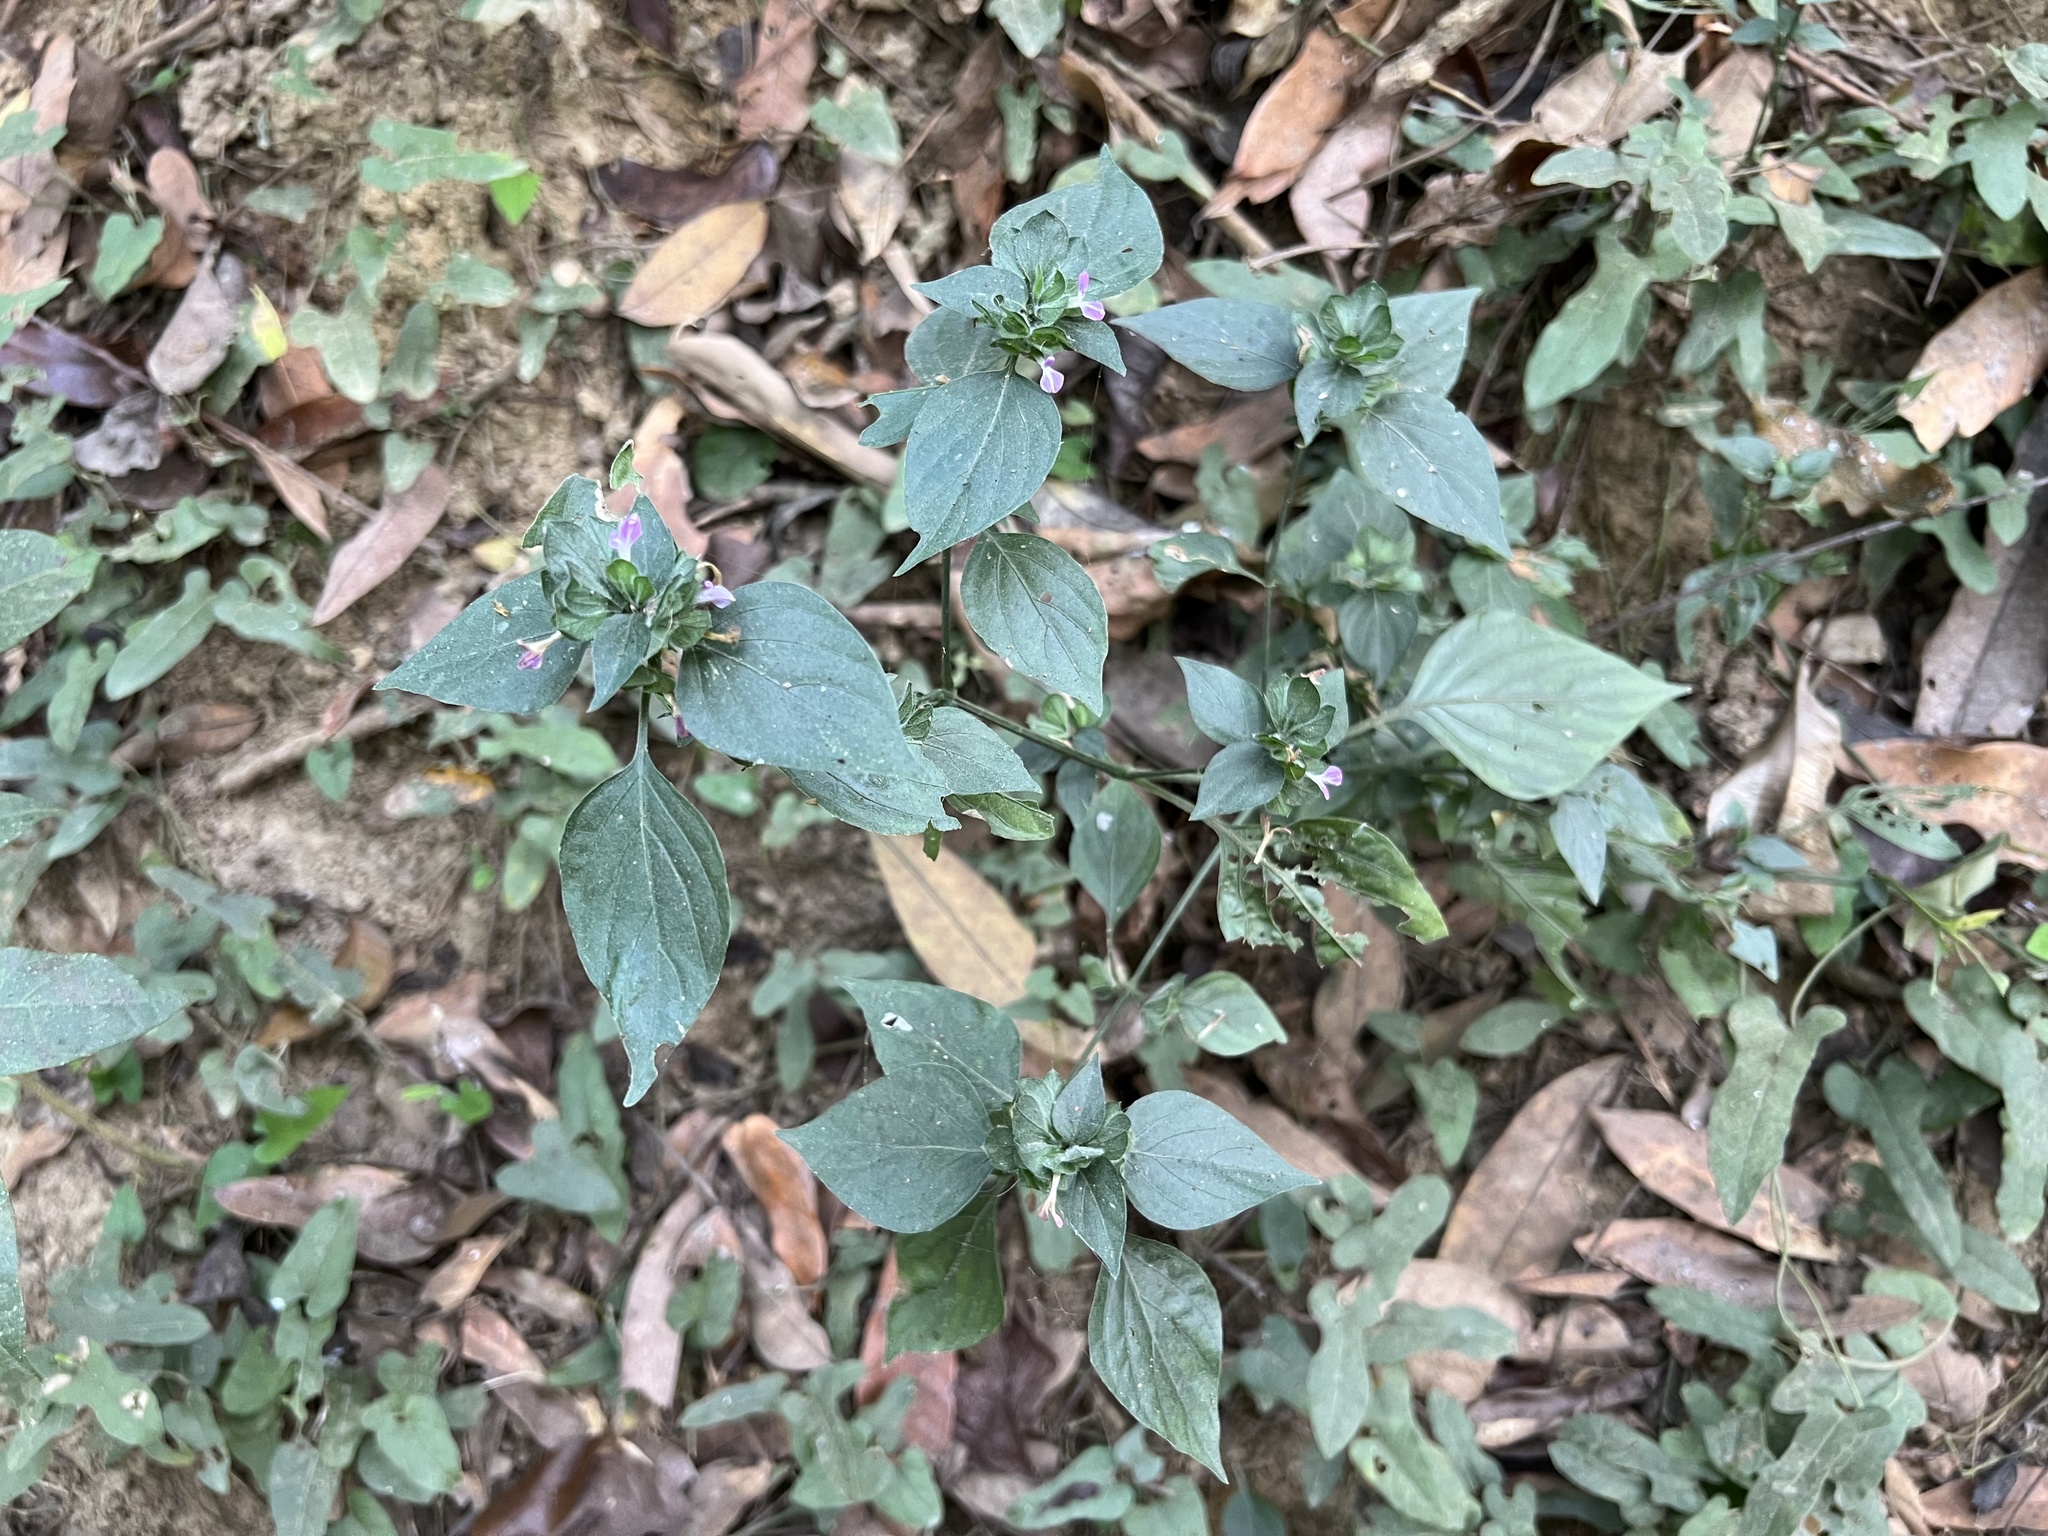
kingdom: Plantae
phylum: Tracheophyta
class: Magnoliopsida
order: Lamiales
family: Acanthaceae
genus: Dicliptera
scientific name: Dicliptera chinensis
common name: Chinese foldwing
